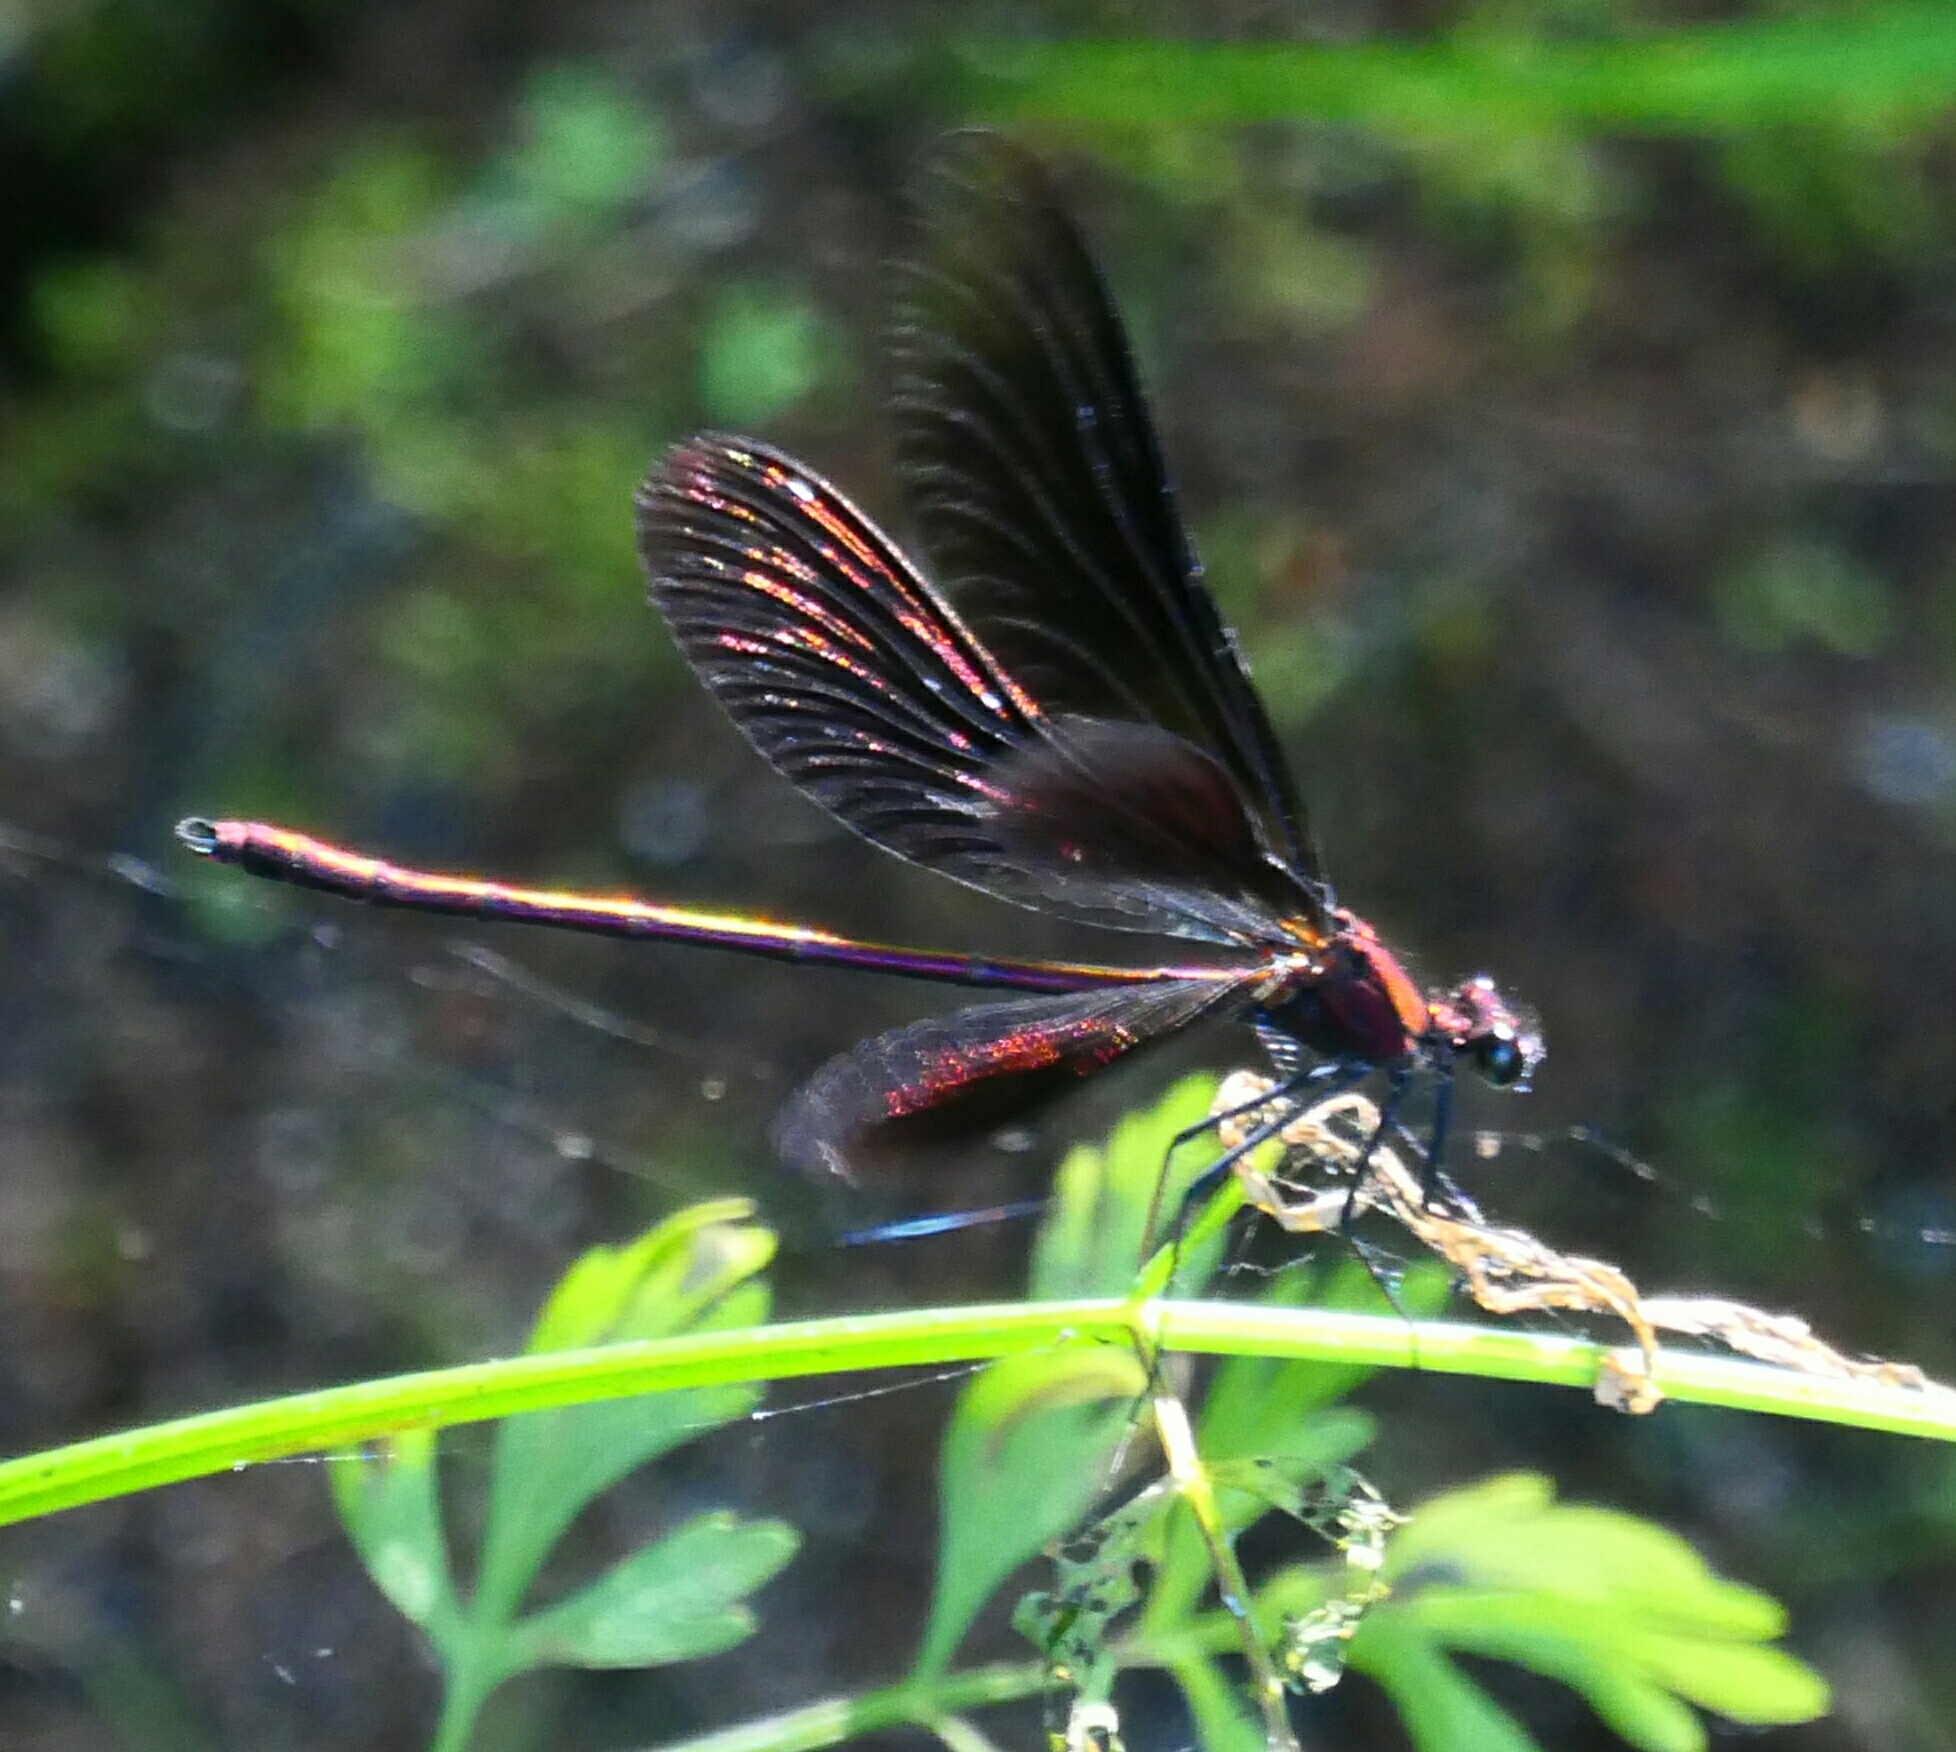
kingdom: Animalia
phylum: Arthropoda
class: Insecta
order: Odonata
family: Calopterygidae
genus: Calopteryx
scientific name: Calopteryx haemorrhoidalis
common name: Copper demoiselle
